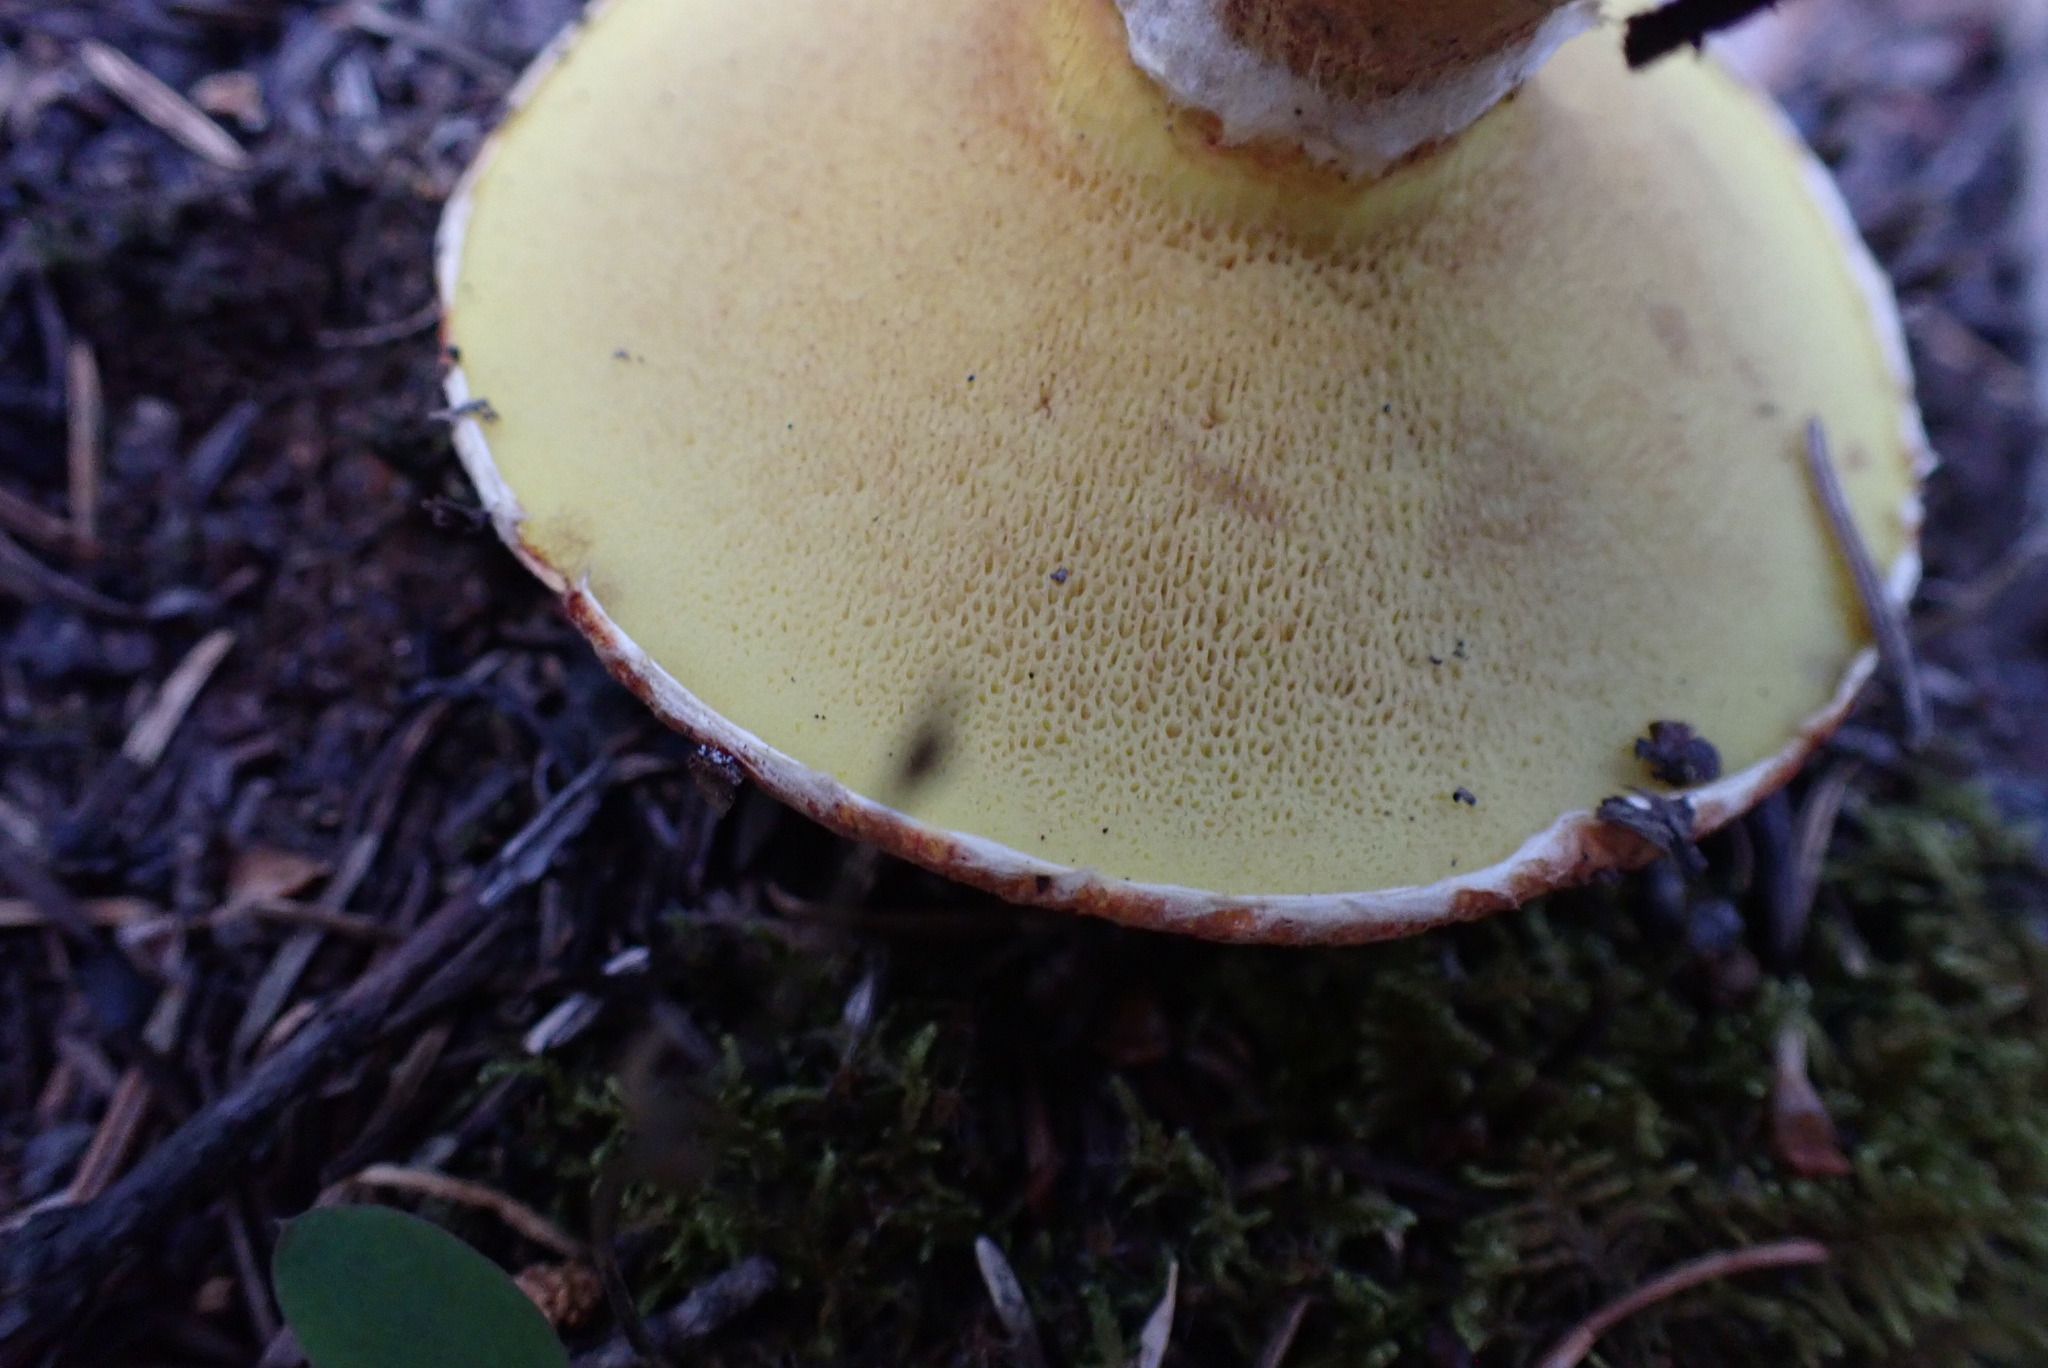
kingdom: Fungi
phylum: Basidiomycota
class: Agaricomycetes
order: Boletales
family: Suillaceae
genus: Suillus
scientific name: Suillus lakei
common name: Western painted suillus
